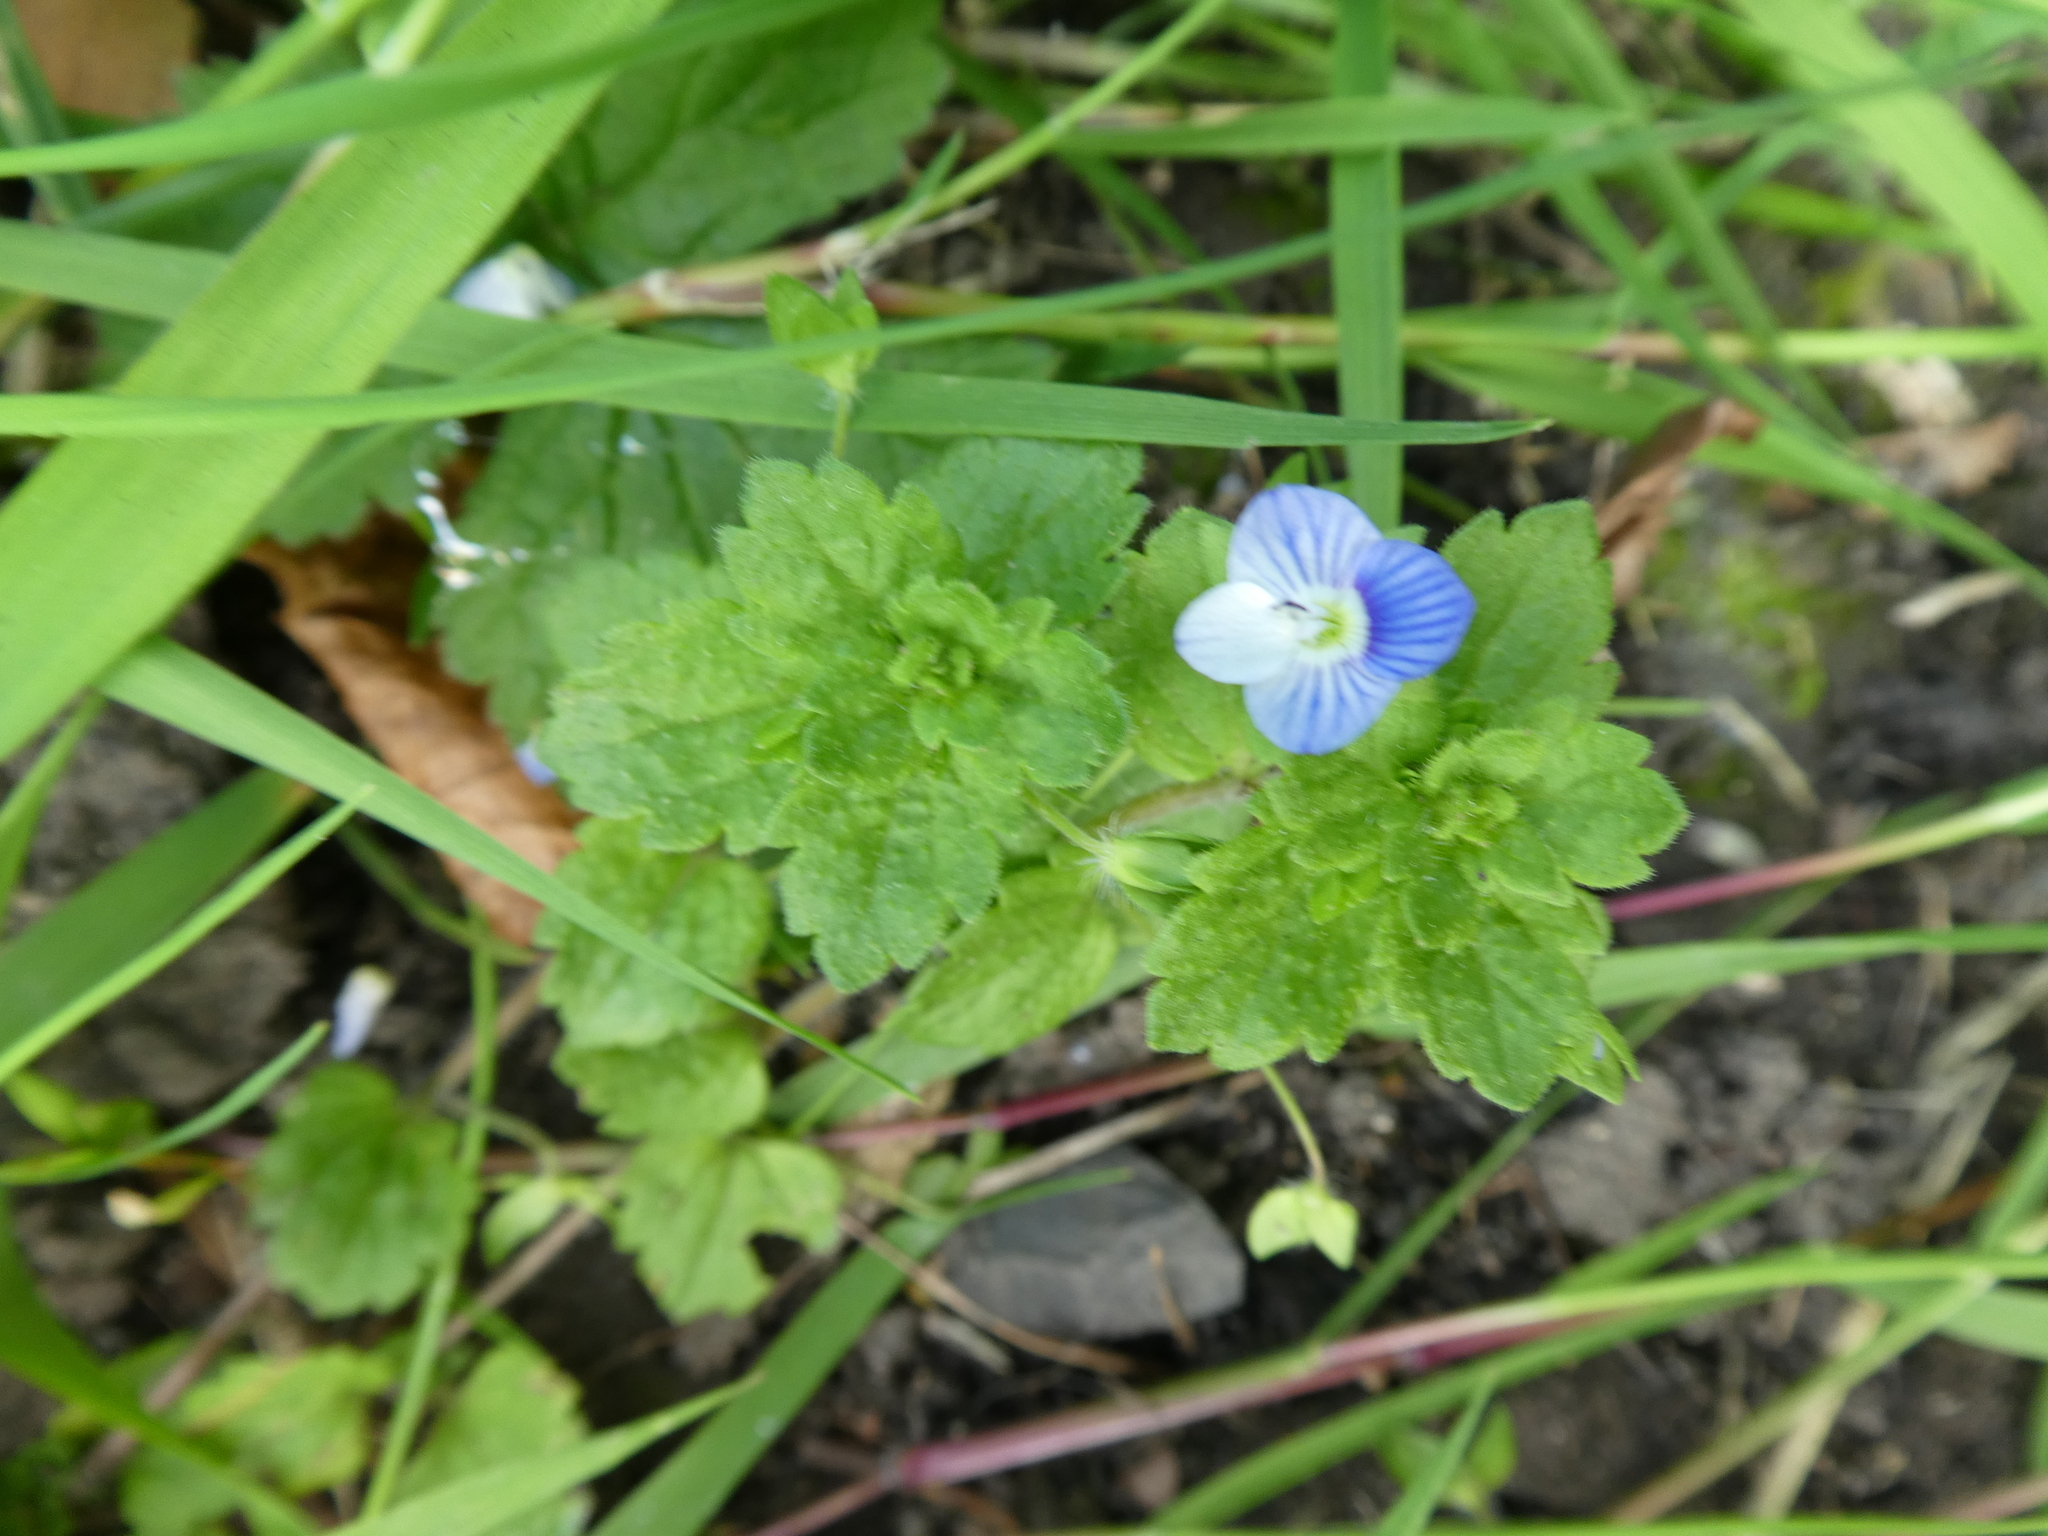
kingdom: Plantae
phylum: Tracheophyta
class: Magnoliopsida
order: Lamiales
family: Plantaginaceae
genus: Veronica
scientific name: Veronica persica
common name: Common field-speedwell
